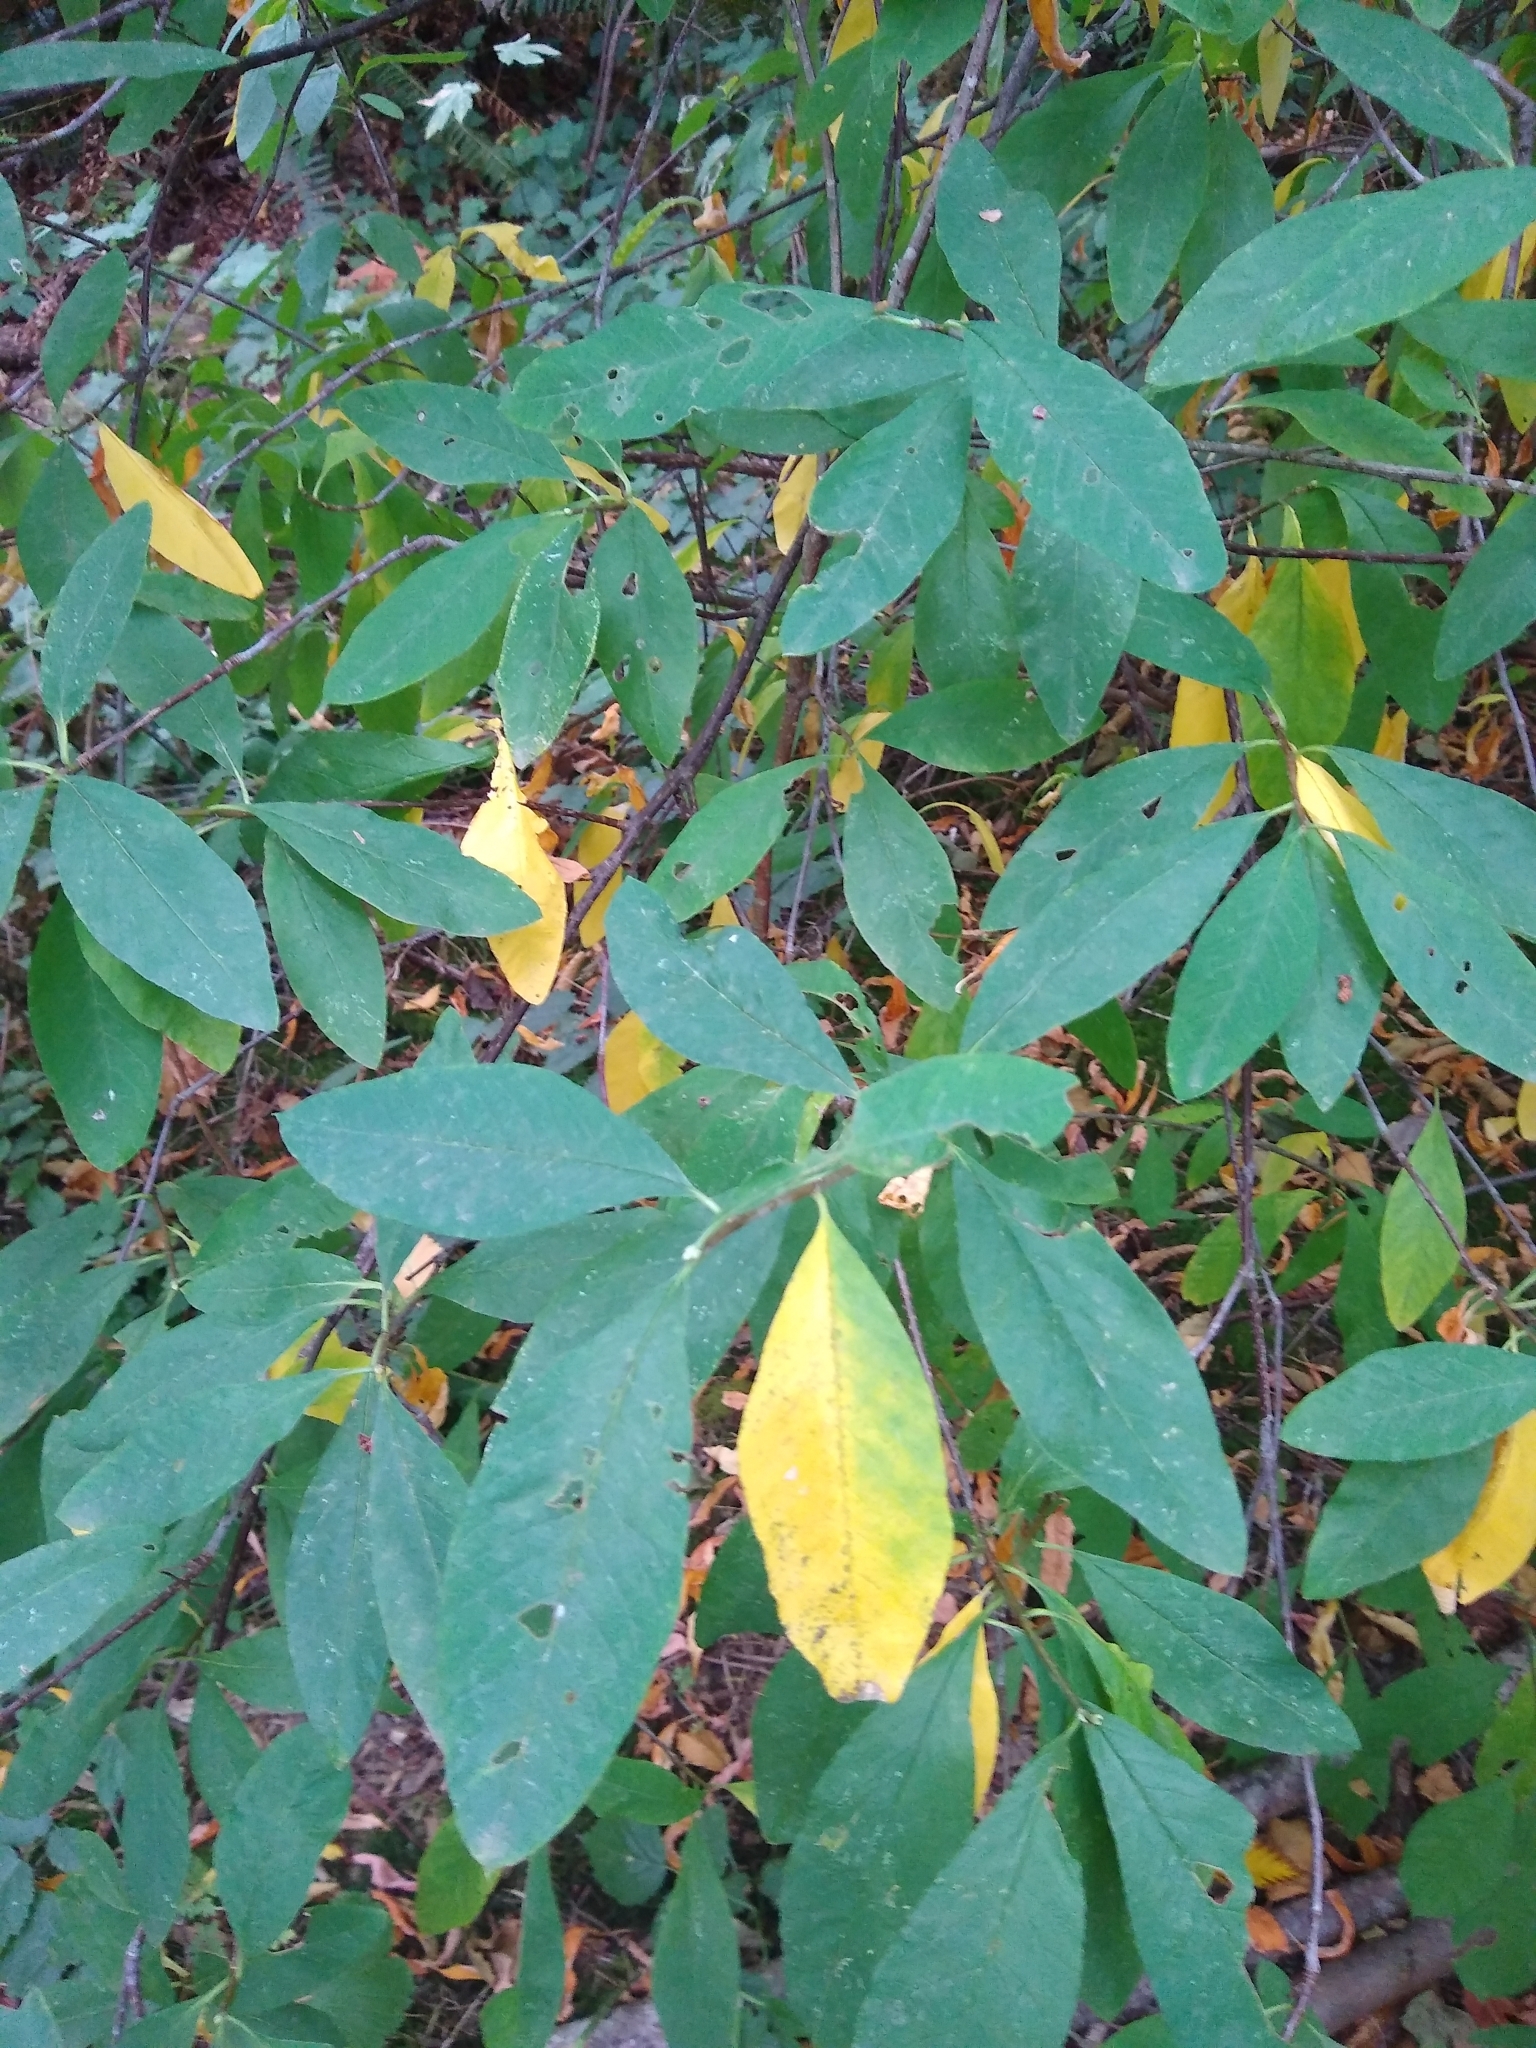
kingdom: Plantae
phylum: Tracheophyta
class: Magnoliopsida
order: Rosales
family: Rosaceae
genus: Oemleria
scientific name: Oemleria cerasiformis
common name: Osoberry
